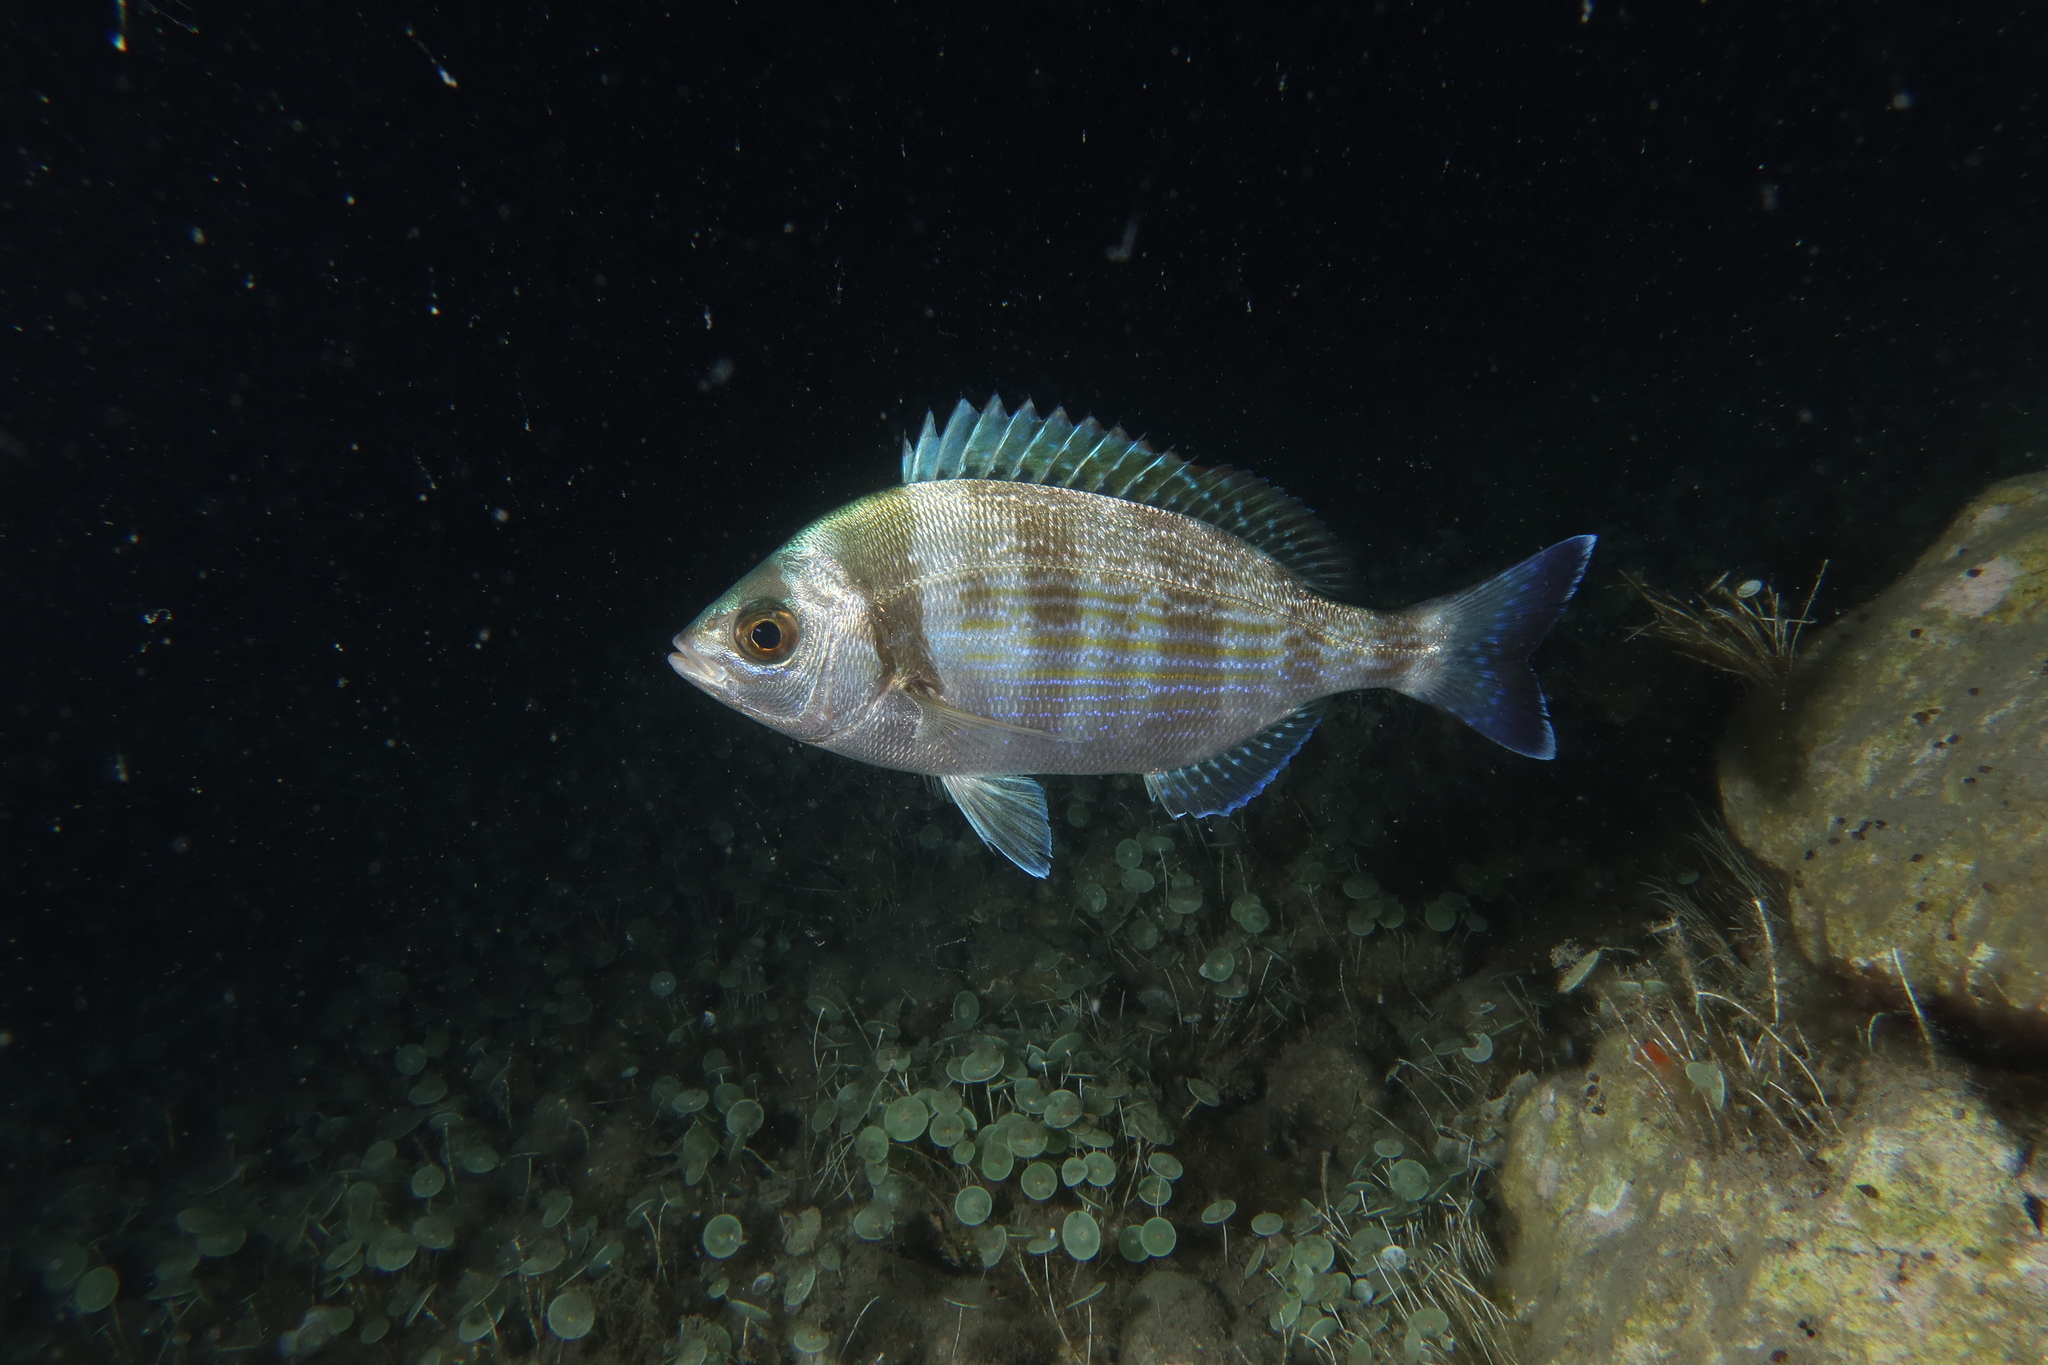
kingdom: Animalia
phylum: Chordata
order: Perciformes
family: Sparidae
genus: Spondyliosoma
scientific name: Spondyliosoma cantharus
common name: Black seabream
